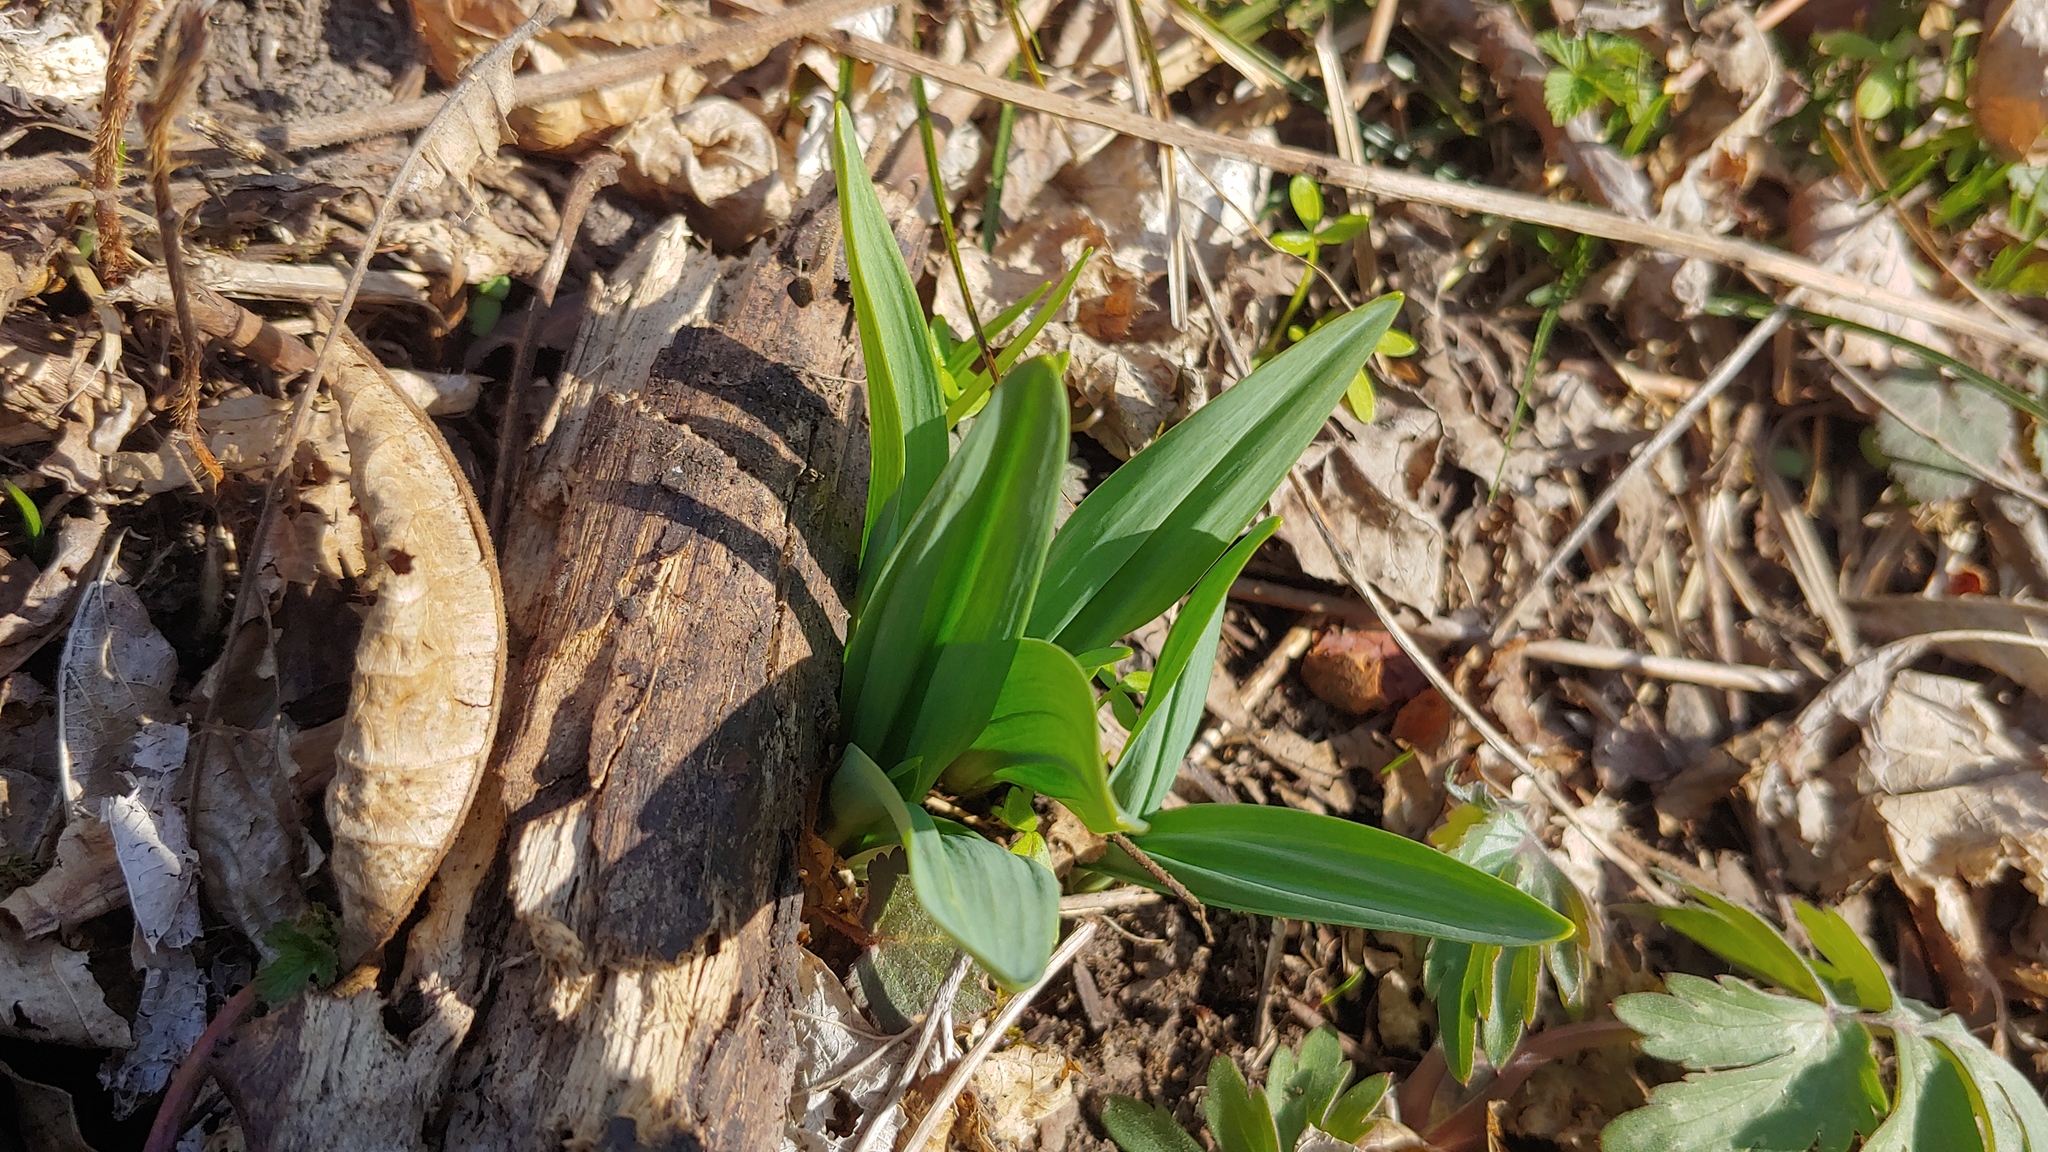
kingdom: Plantae
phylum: Tracheophyta
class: Liliopsida
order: Asparagales
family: Amaryllidaceae
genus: Allium
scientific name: Allium tricoccum
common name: Ramp
